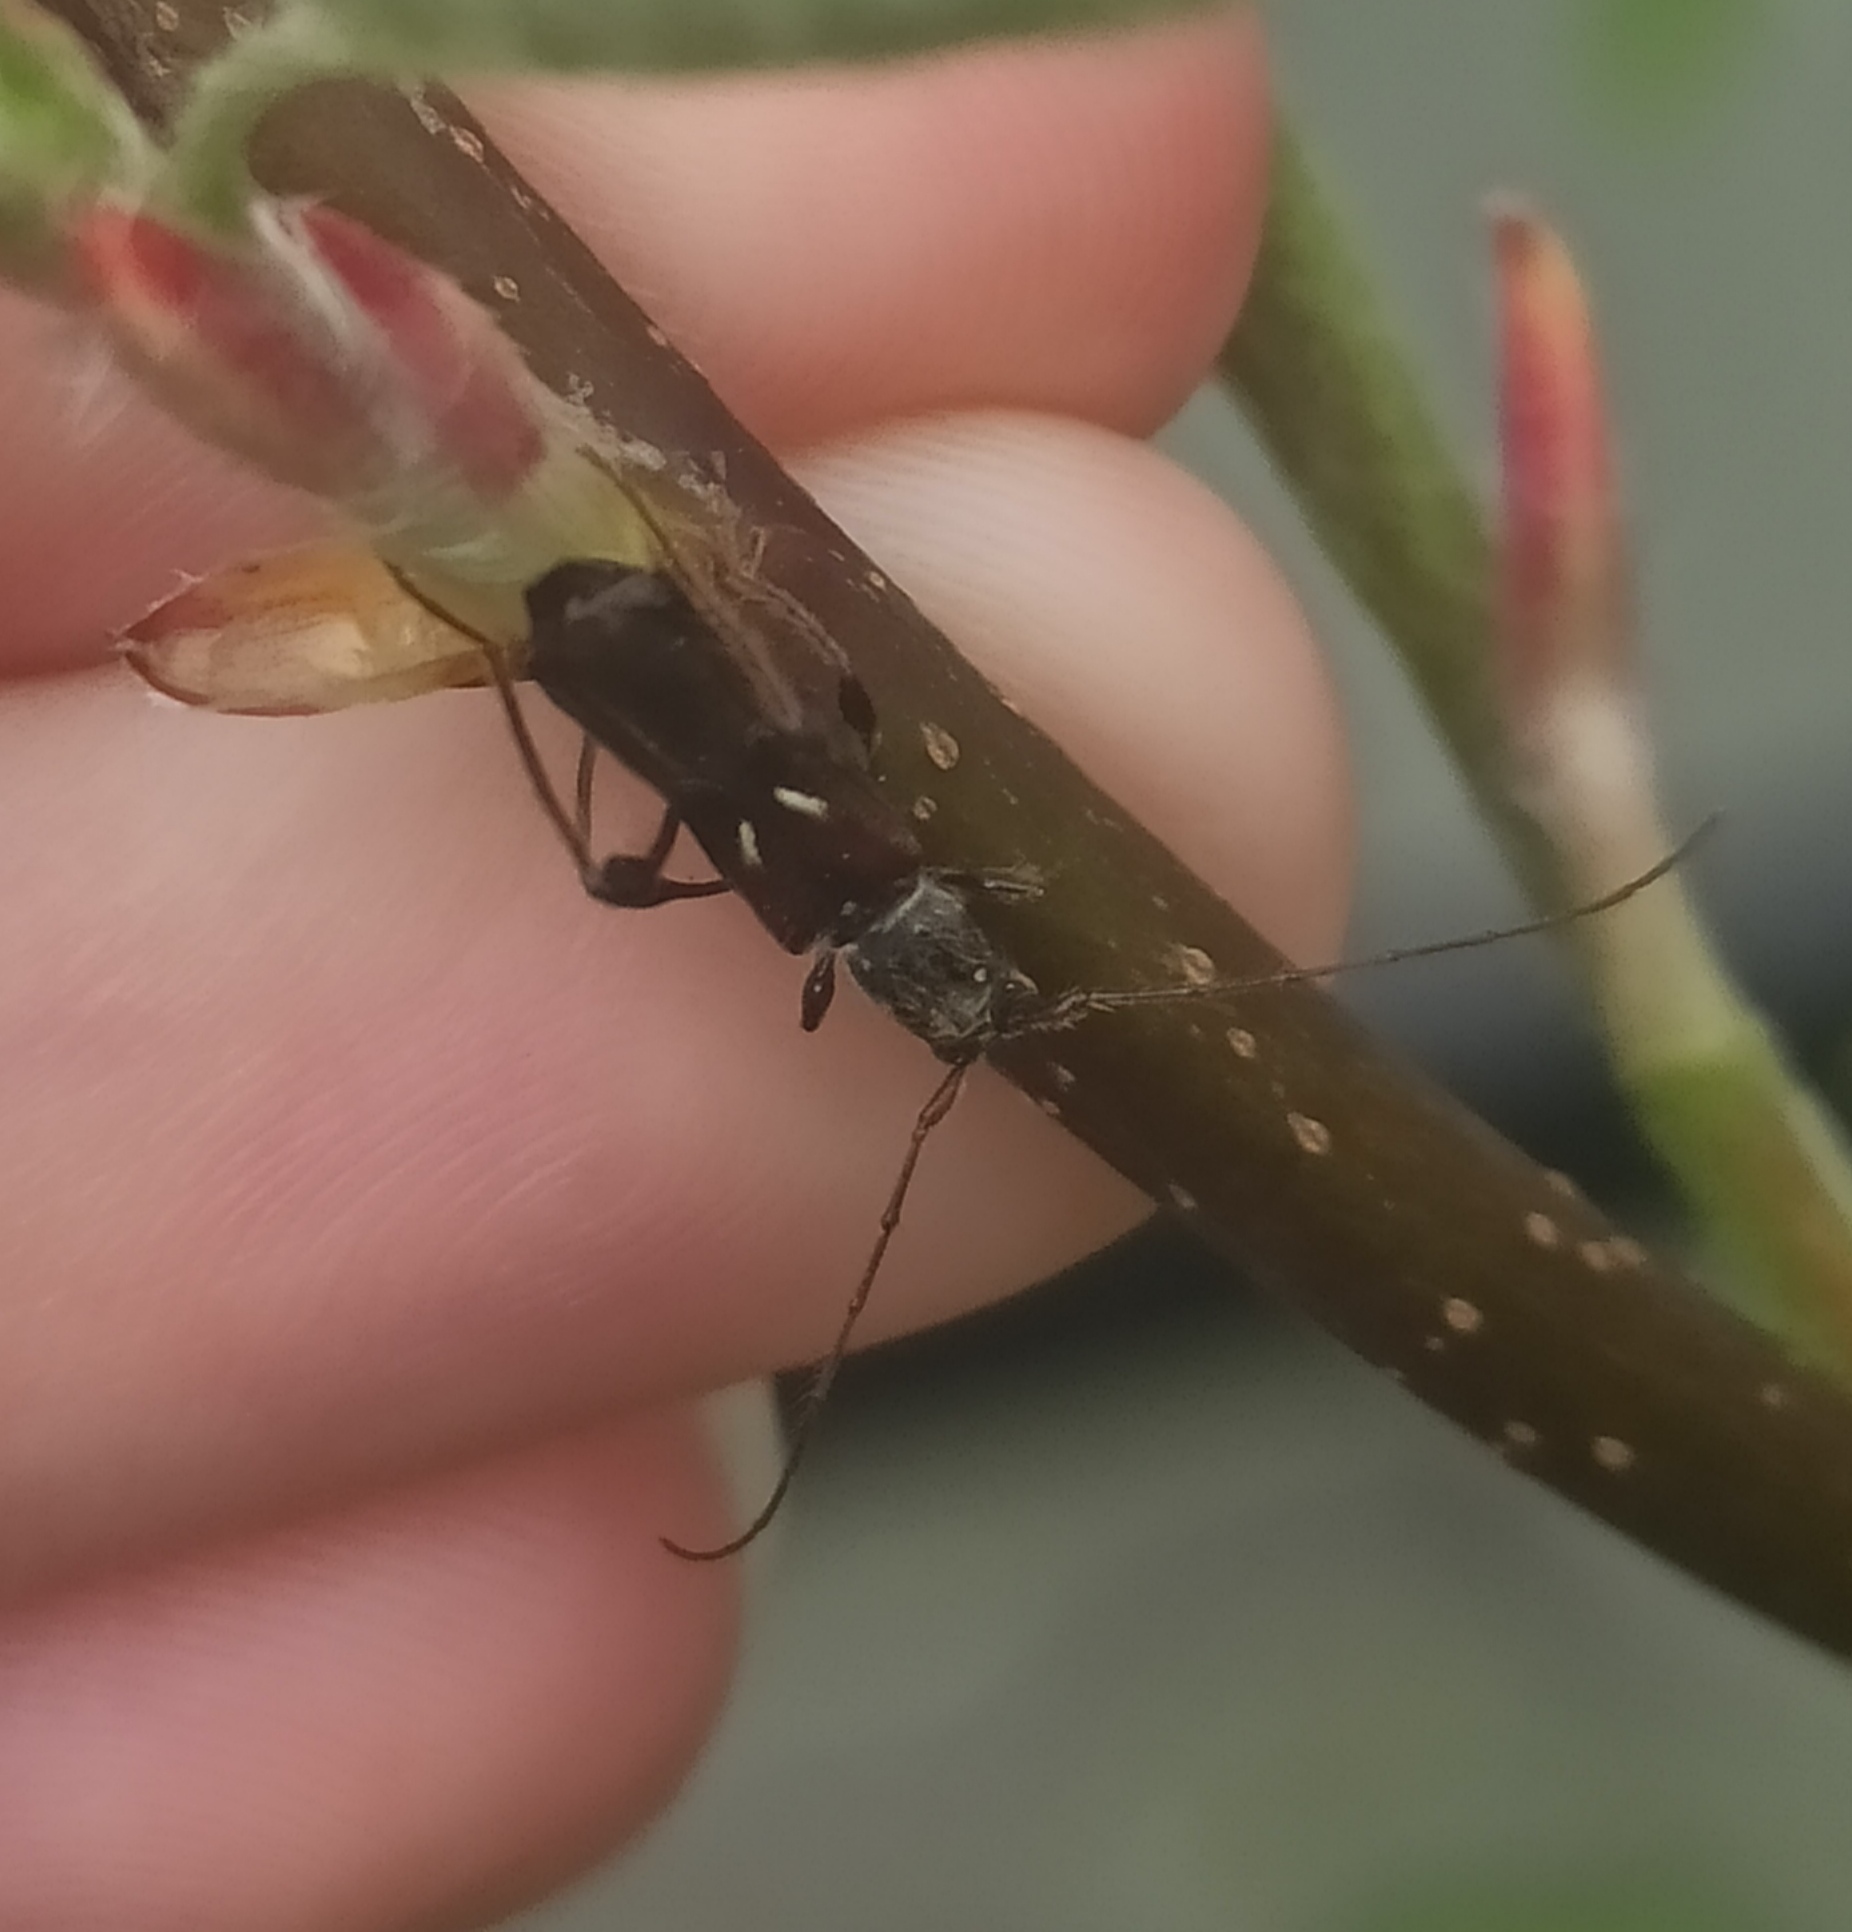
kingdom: Animalia
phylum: Arthropoda
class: Insecta
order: Coleoptera
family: Cerambycidae
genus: Molorchus
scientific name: Molorchus minor
